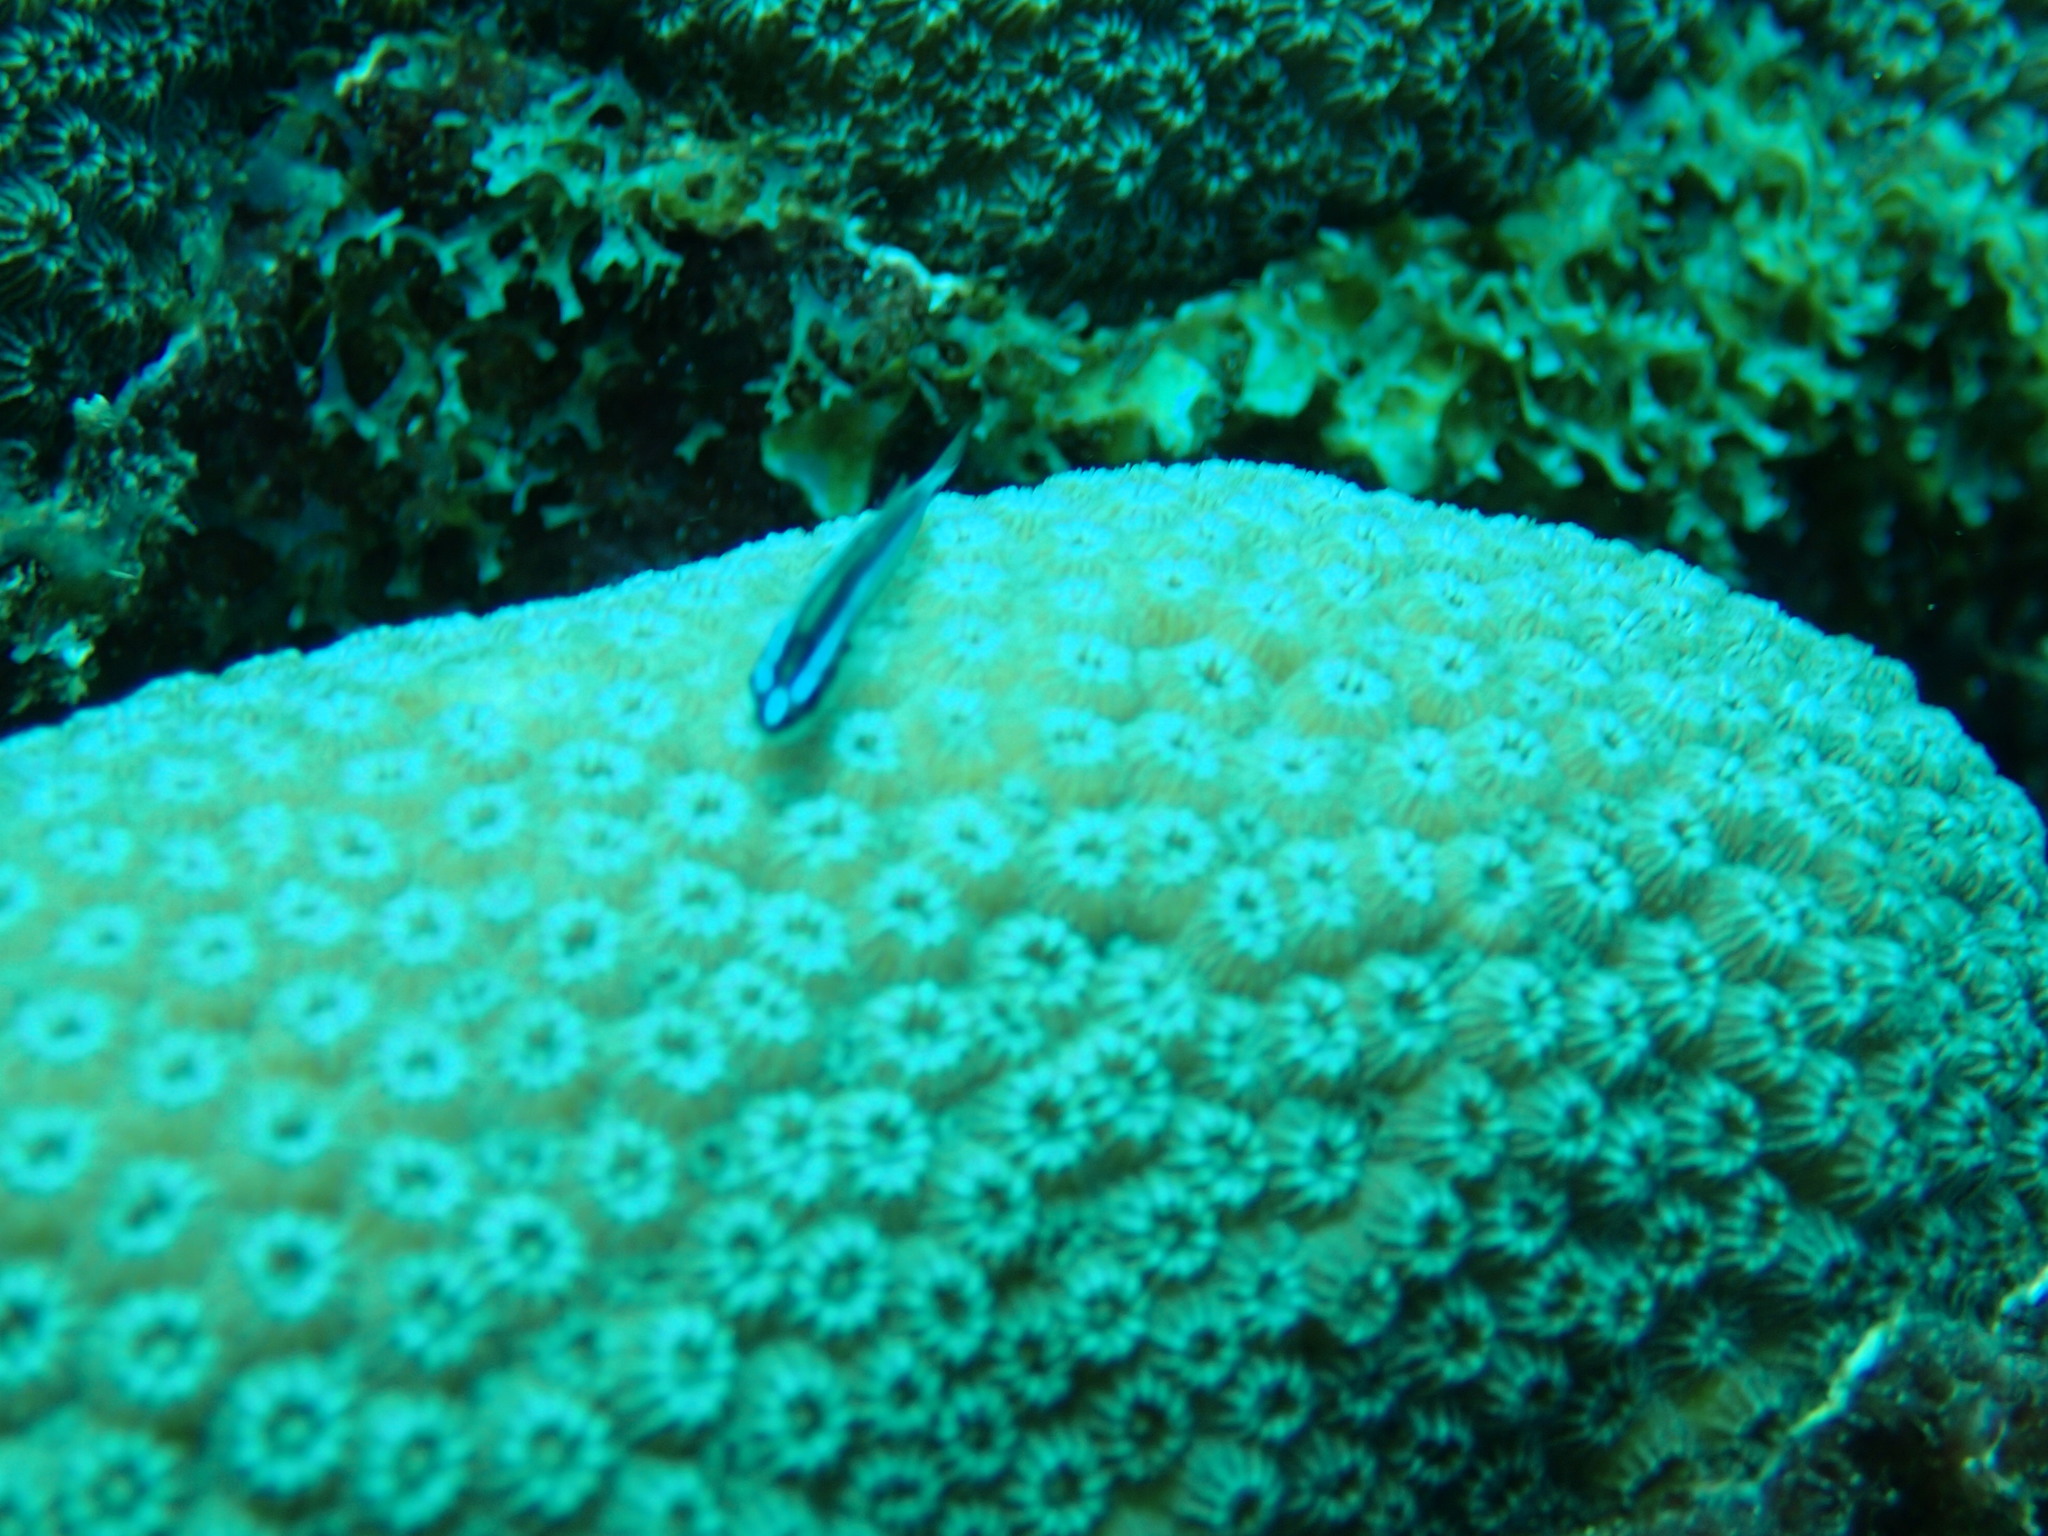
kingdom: Animalia
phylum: Chordata
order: Perciformes
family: Gobiidae
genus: Elacatinus
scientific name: Elacatinus illecebrosus
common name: Barsnout goby
